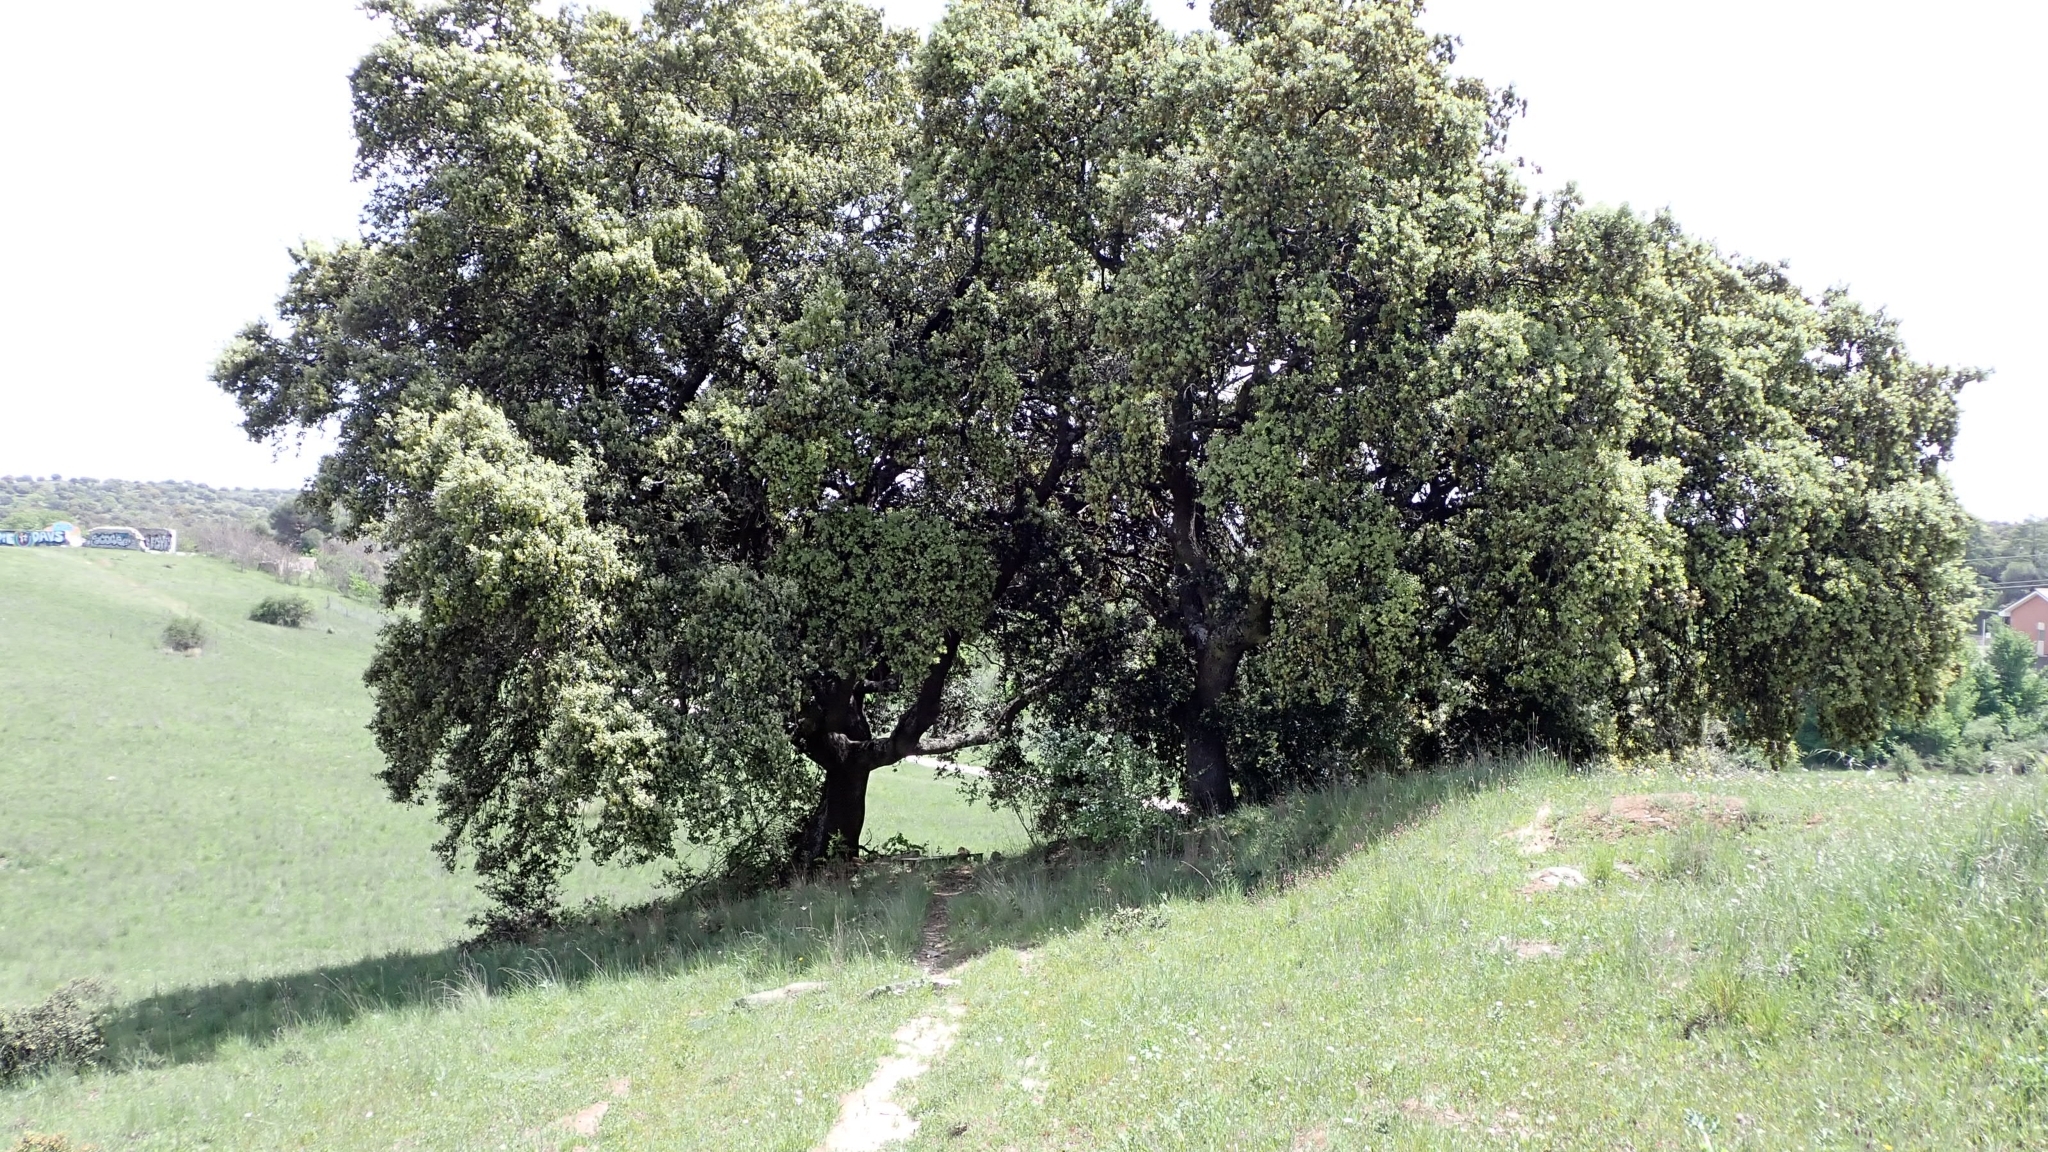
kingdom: Plantae
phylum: Tracheophyta
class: Magnoliopsida
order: Fagales
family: Fagaceae
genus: Quercus
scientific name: Quercus rotundifolia
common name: Holm oak
